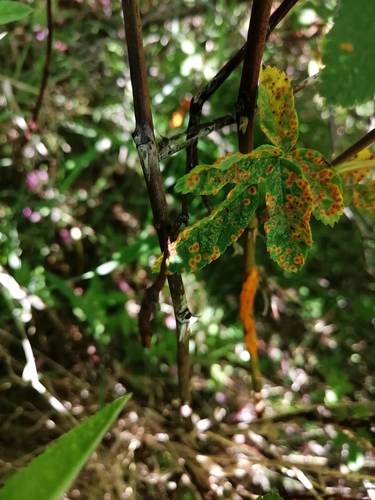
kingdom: Fungi
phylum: Basidiomycota
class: Pucciniomycetes
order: Pucciniales
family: Phragmidiaceae
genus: Phragmidium
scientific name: Phragmidium potentillae
